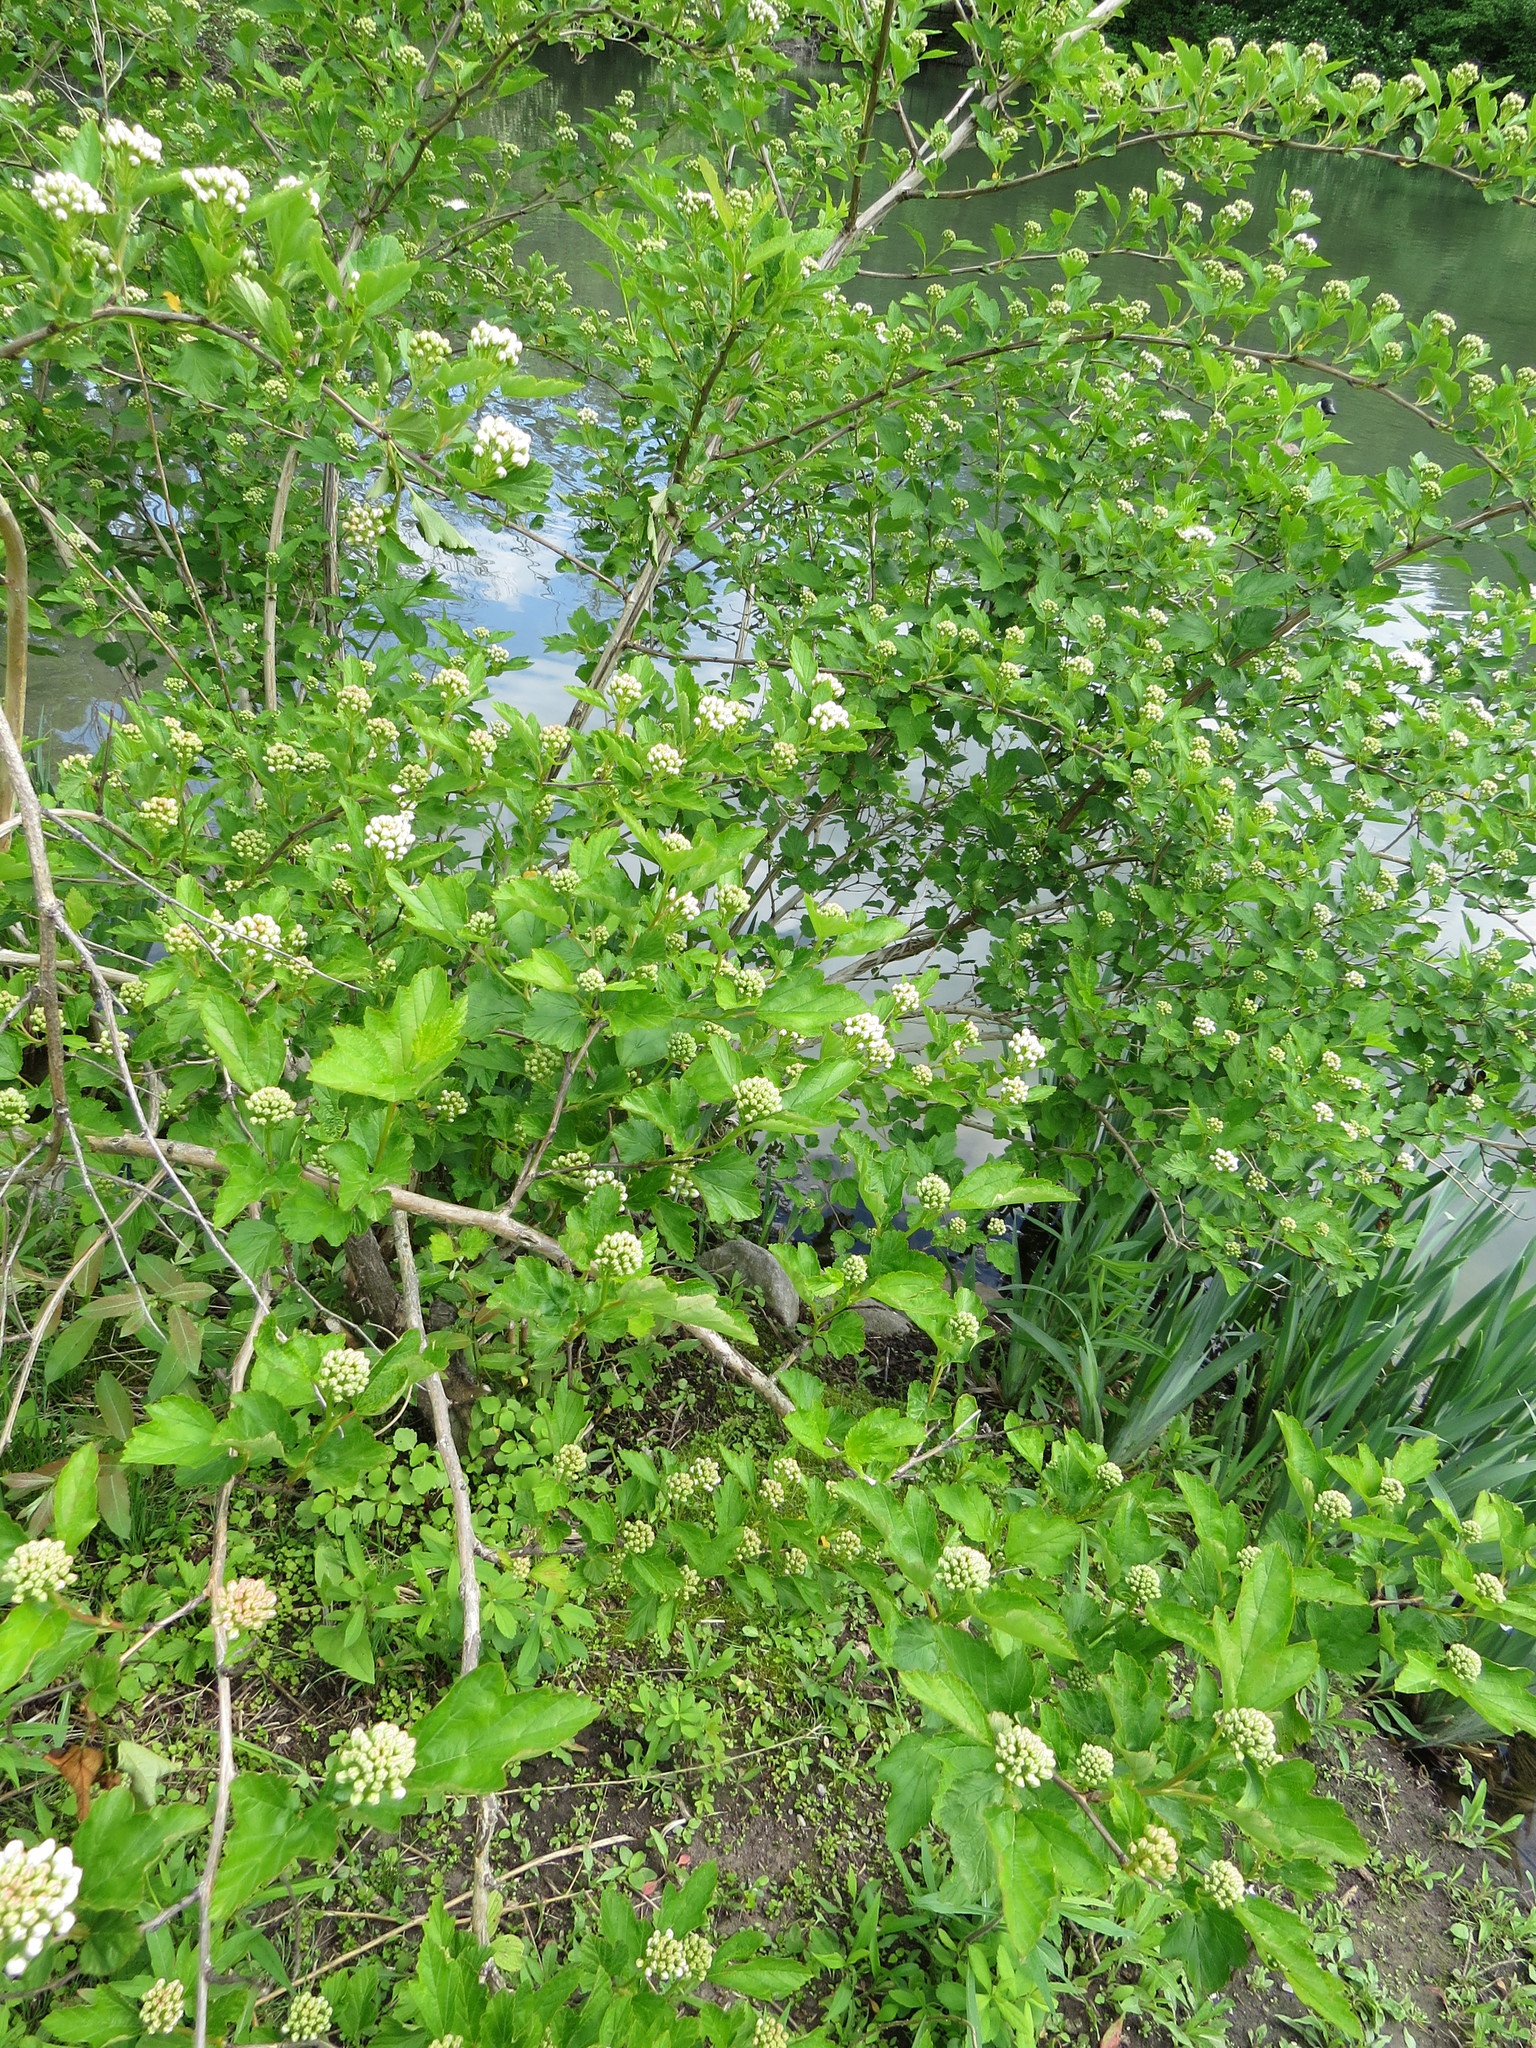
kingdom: Plantae
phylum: Tracheophyta
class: Magnoliopsida
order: Rosales
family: Rosaceae
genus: Physocarpus
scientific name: Physocarpus opulifolius
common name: Ninebark
